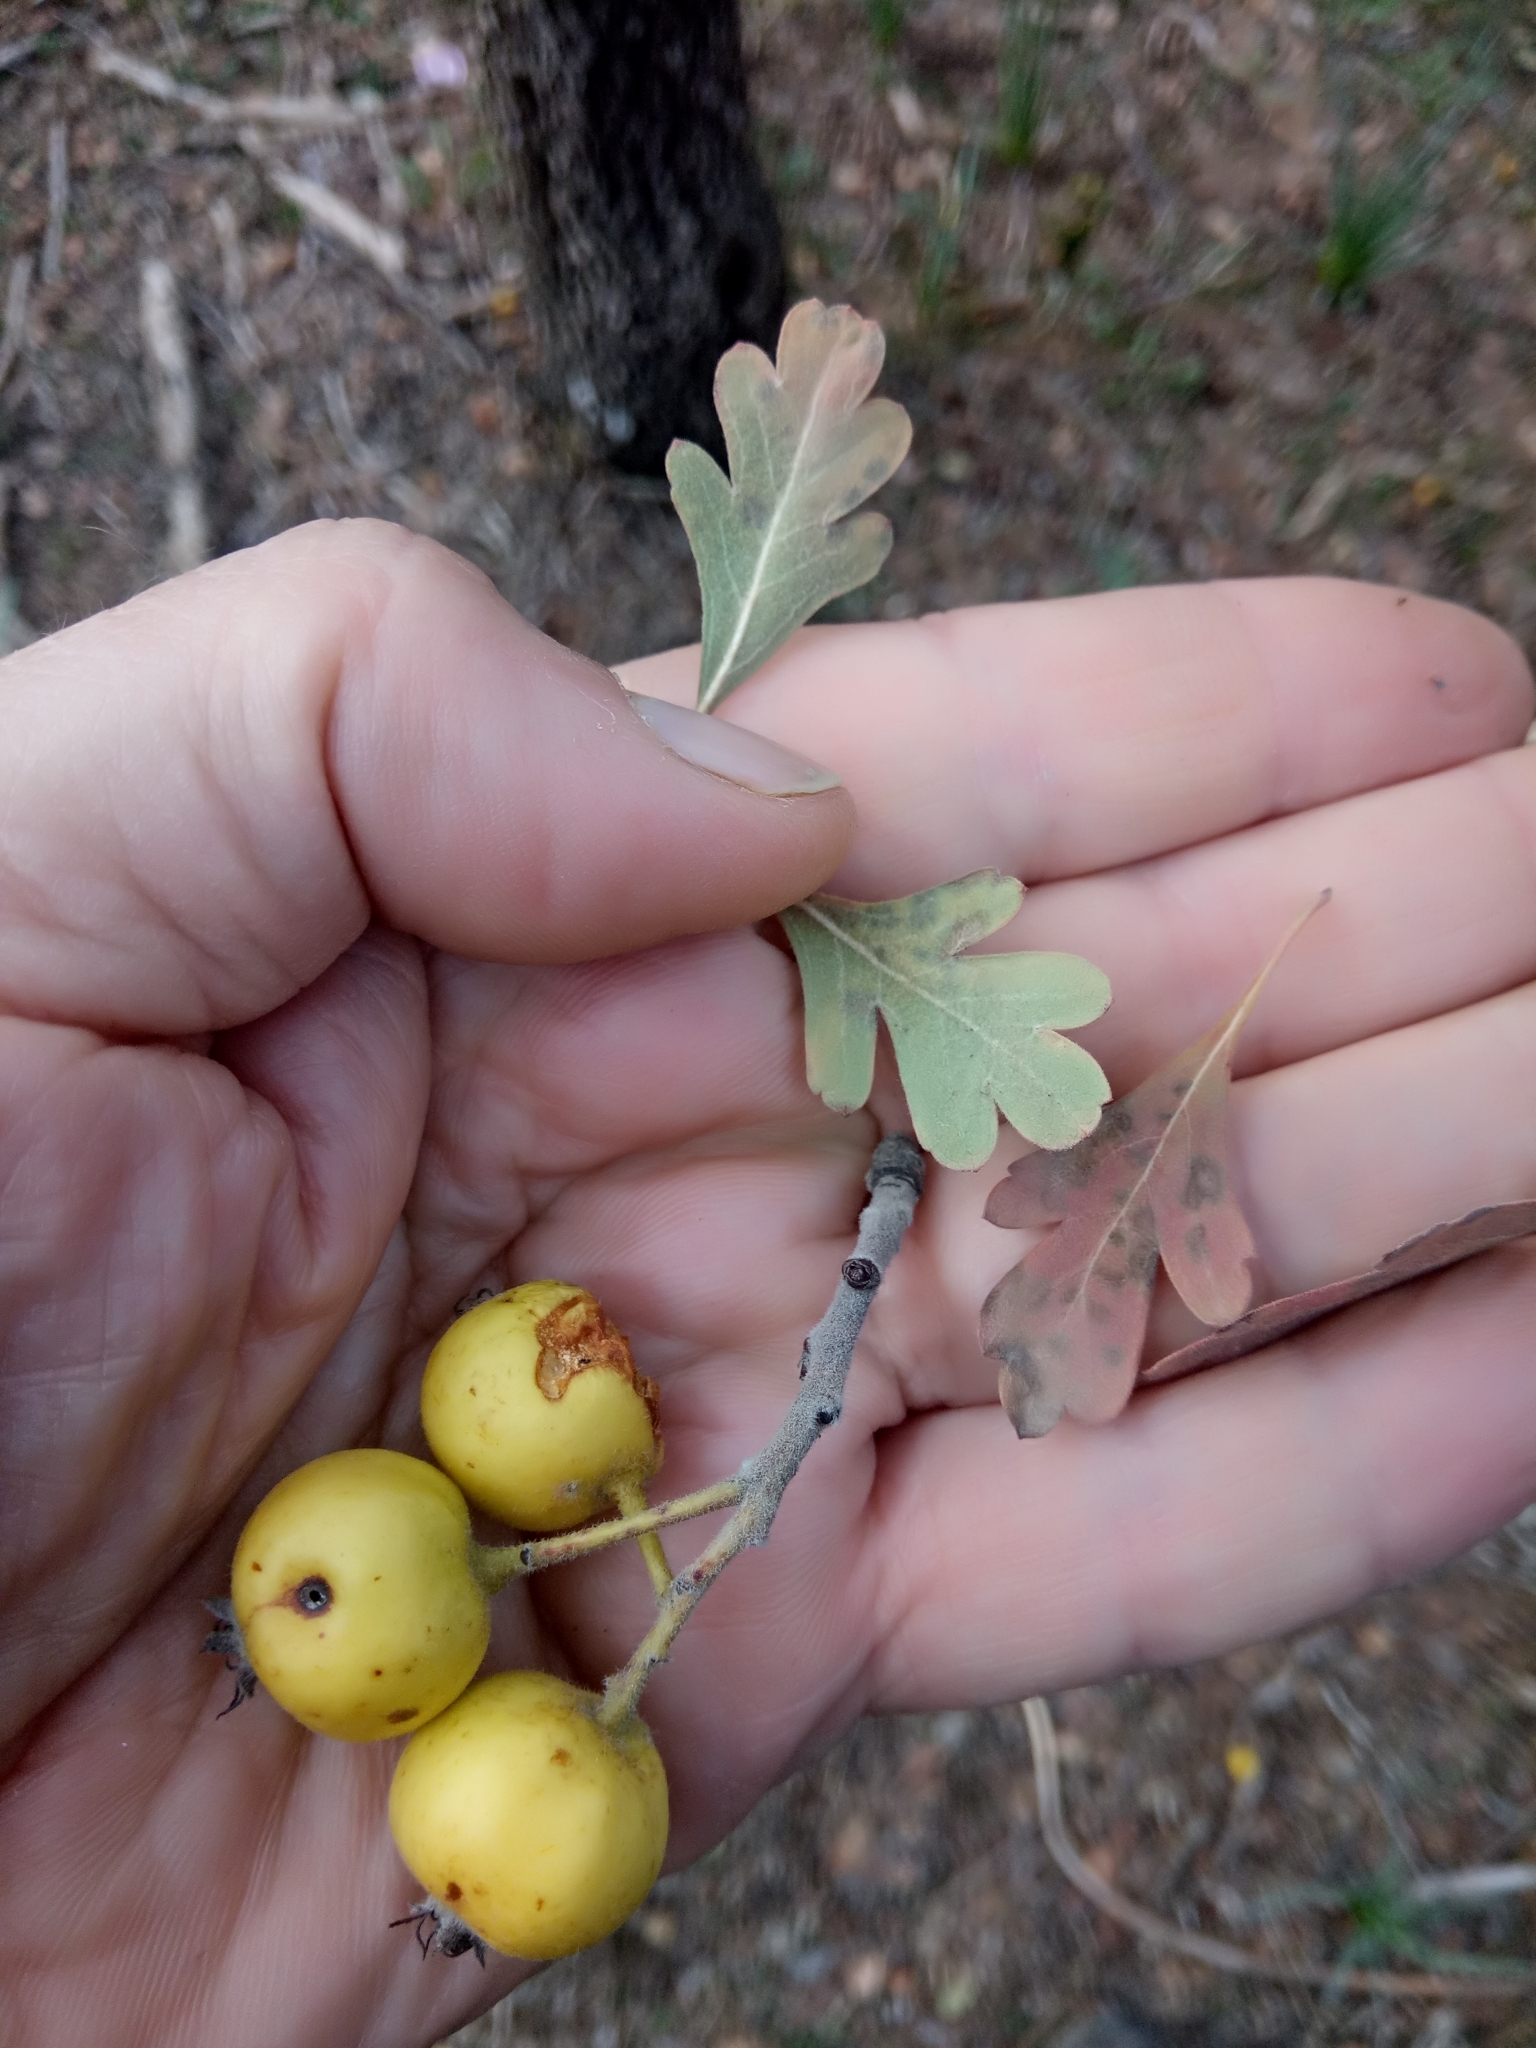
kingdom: Plantae
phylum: Tracheophyta
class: Magnoliopsida
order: Rosales
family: Rosaceae
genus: Crataegus
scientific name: Crataegus azarolus
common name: Azarole
